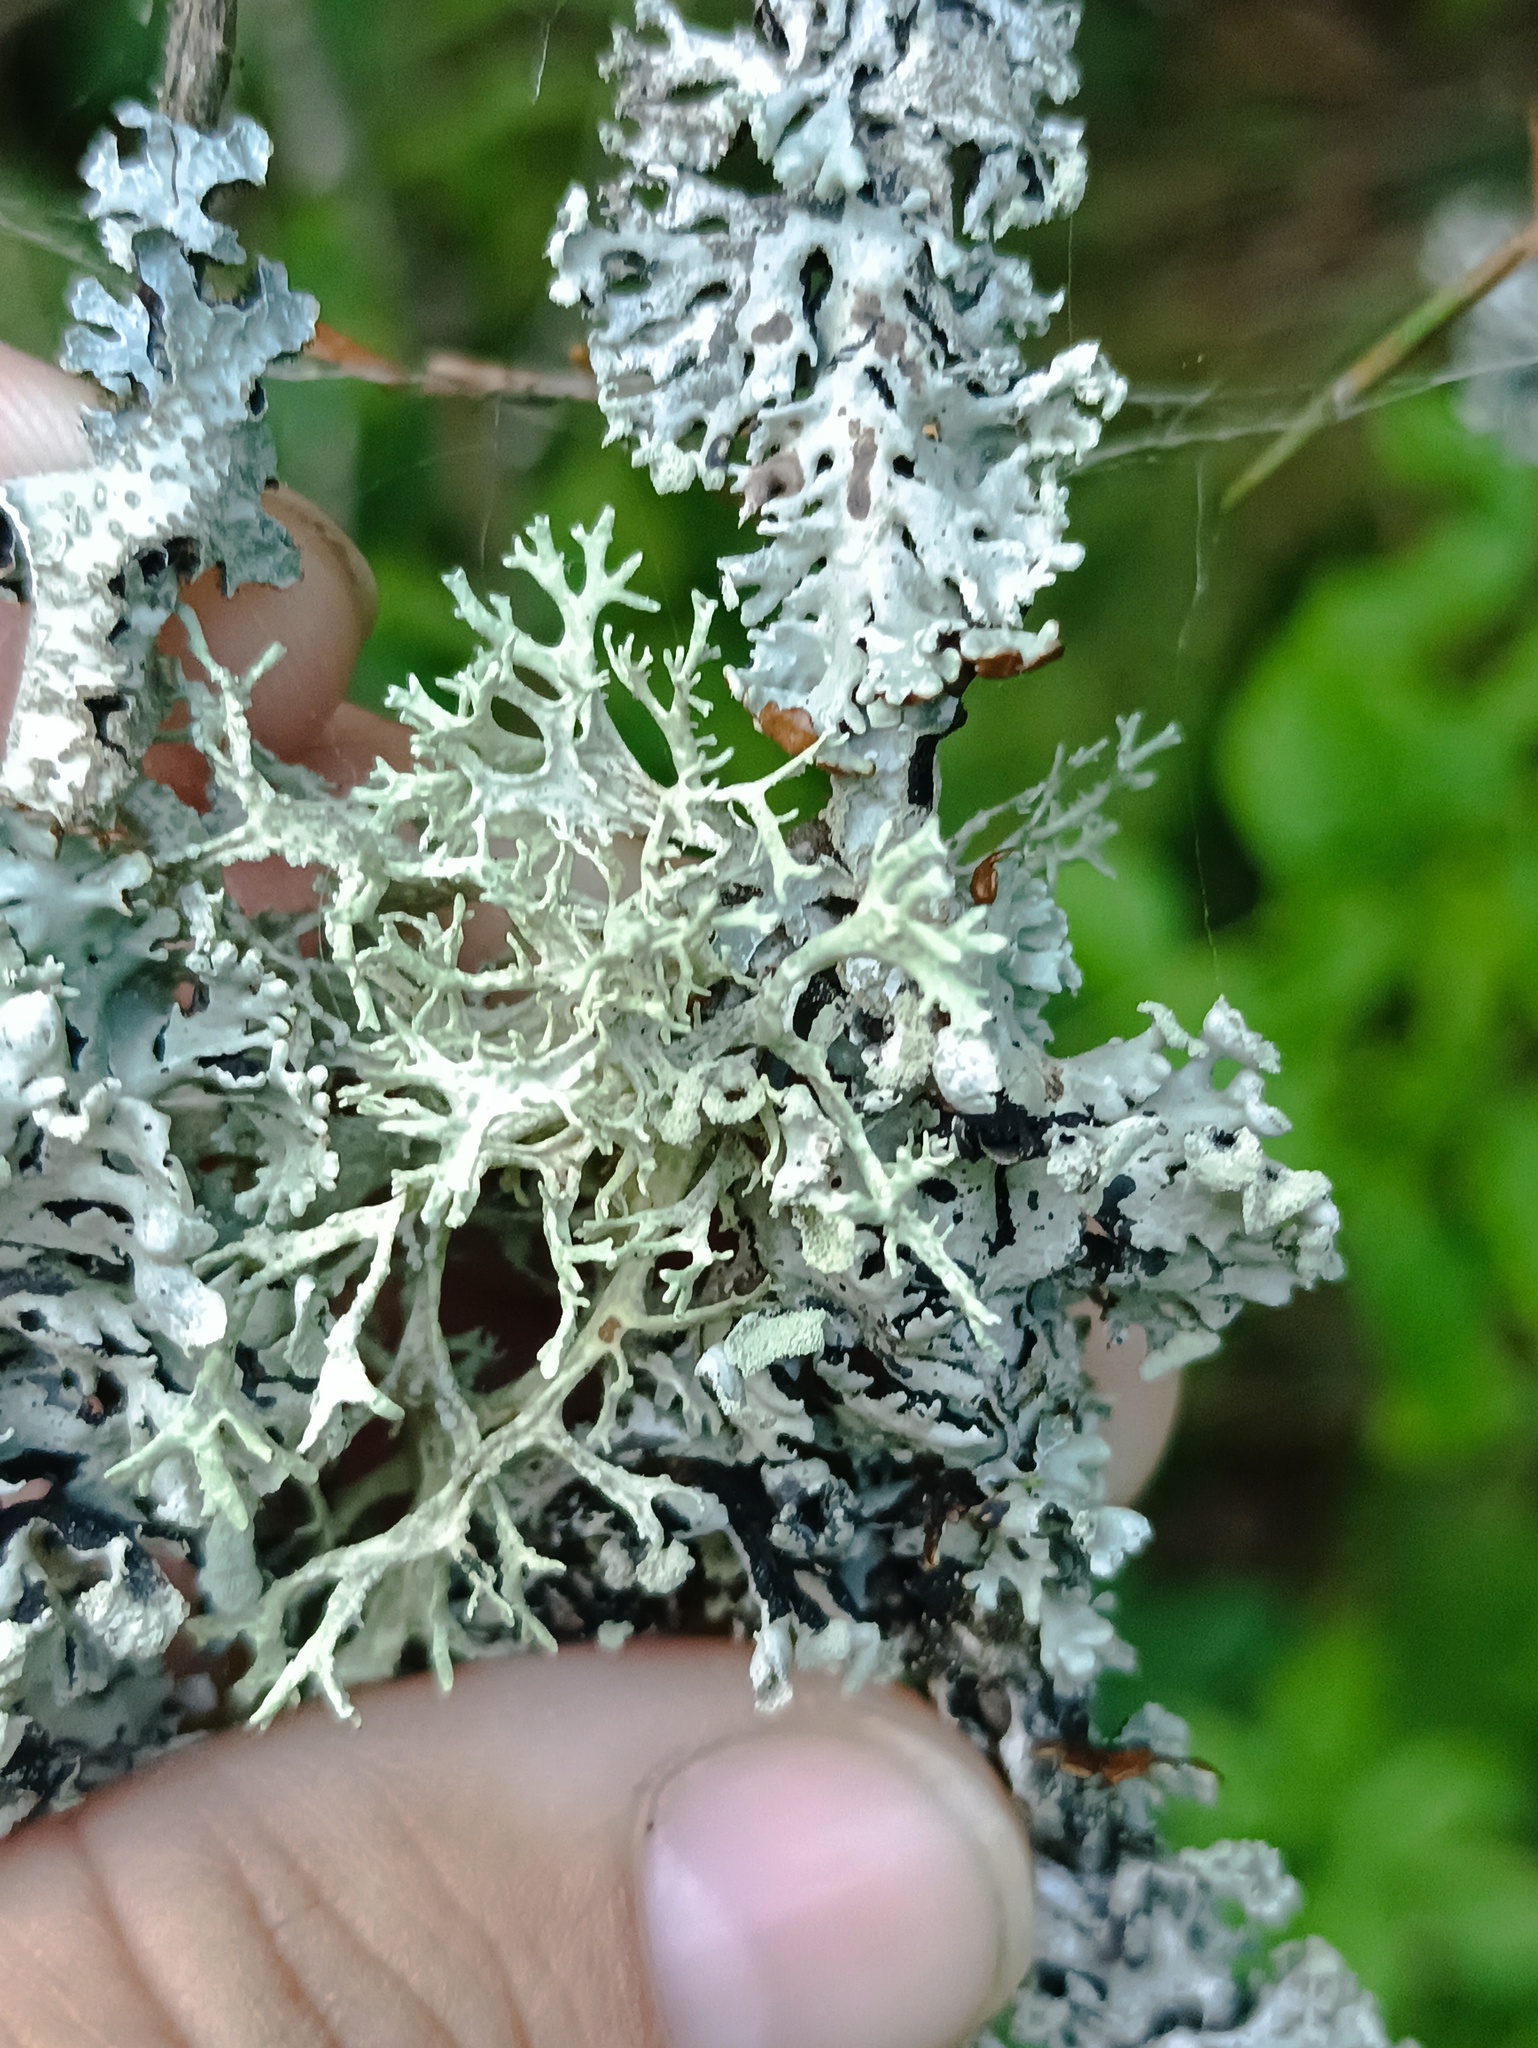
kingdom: Fungi
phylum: Ascomycota
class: Lecanoromycetes
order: Lecanorales
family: Parmeliaceae
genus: Evernia
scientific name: Evernia prunastri
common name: Oak moss
